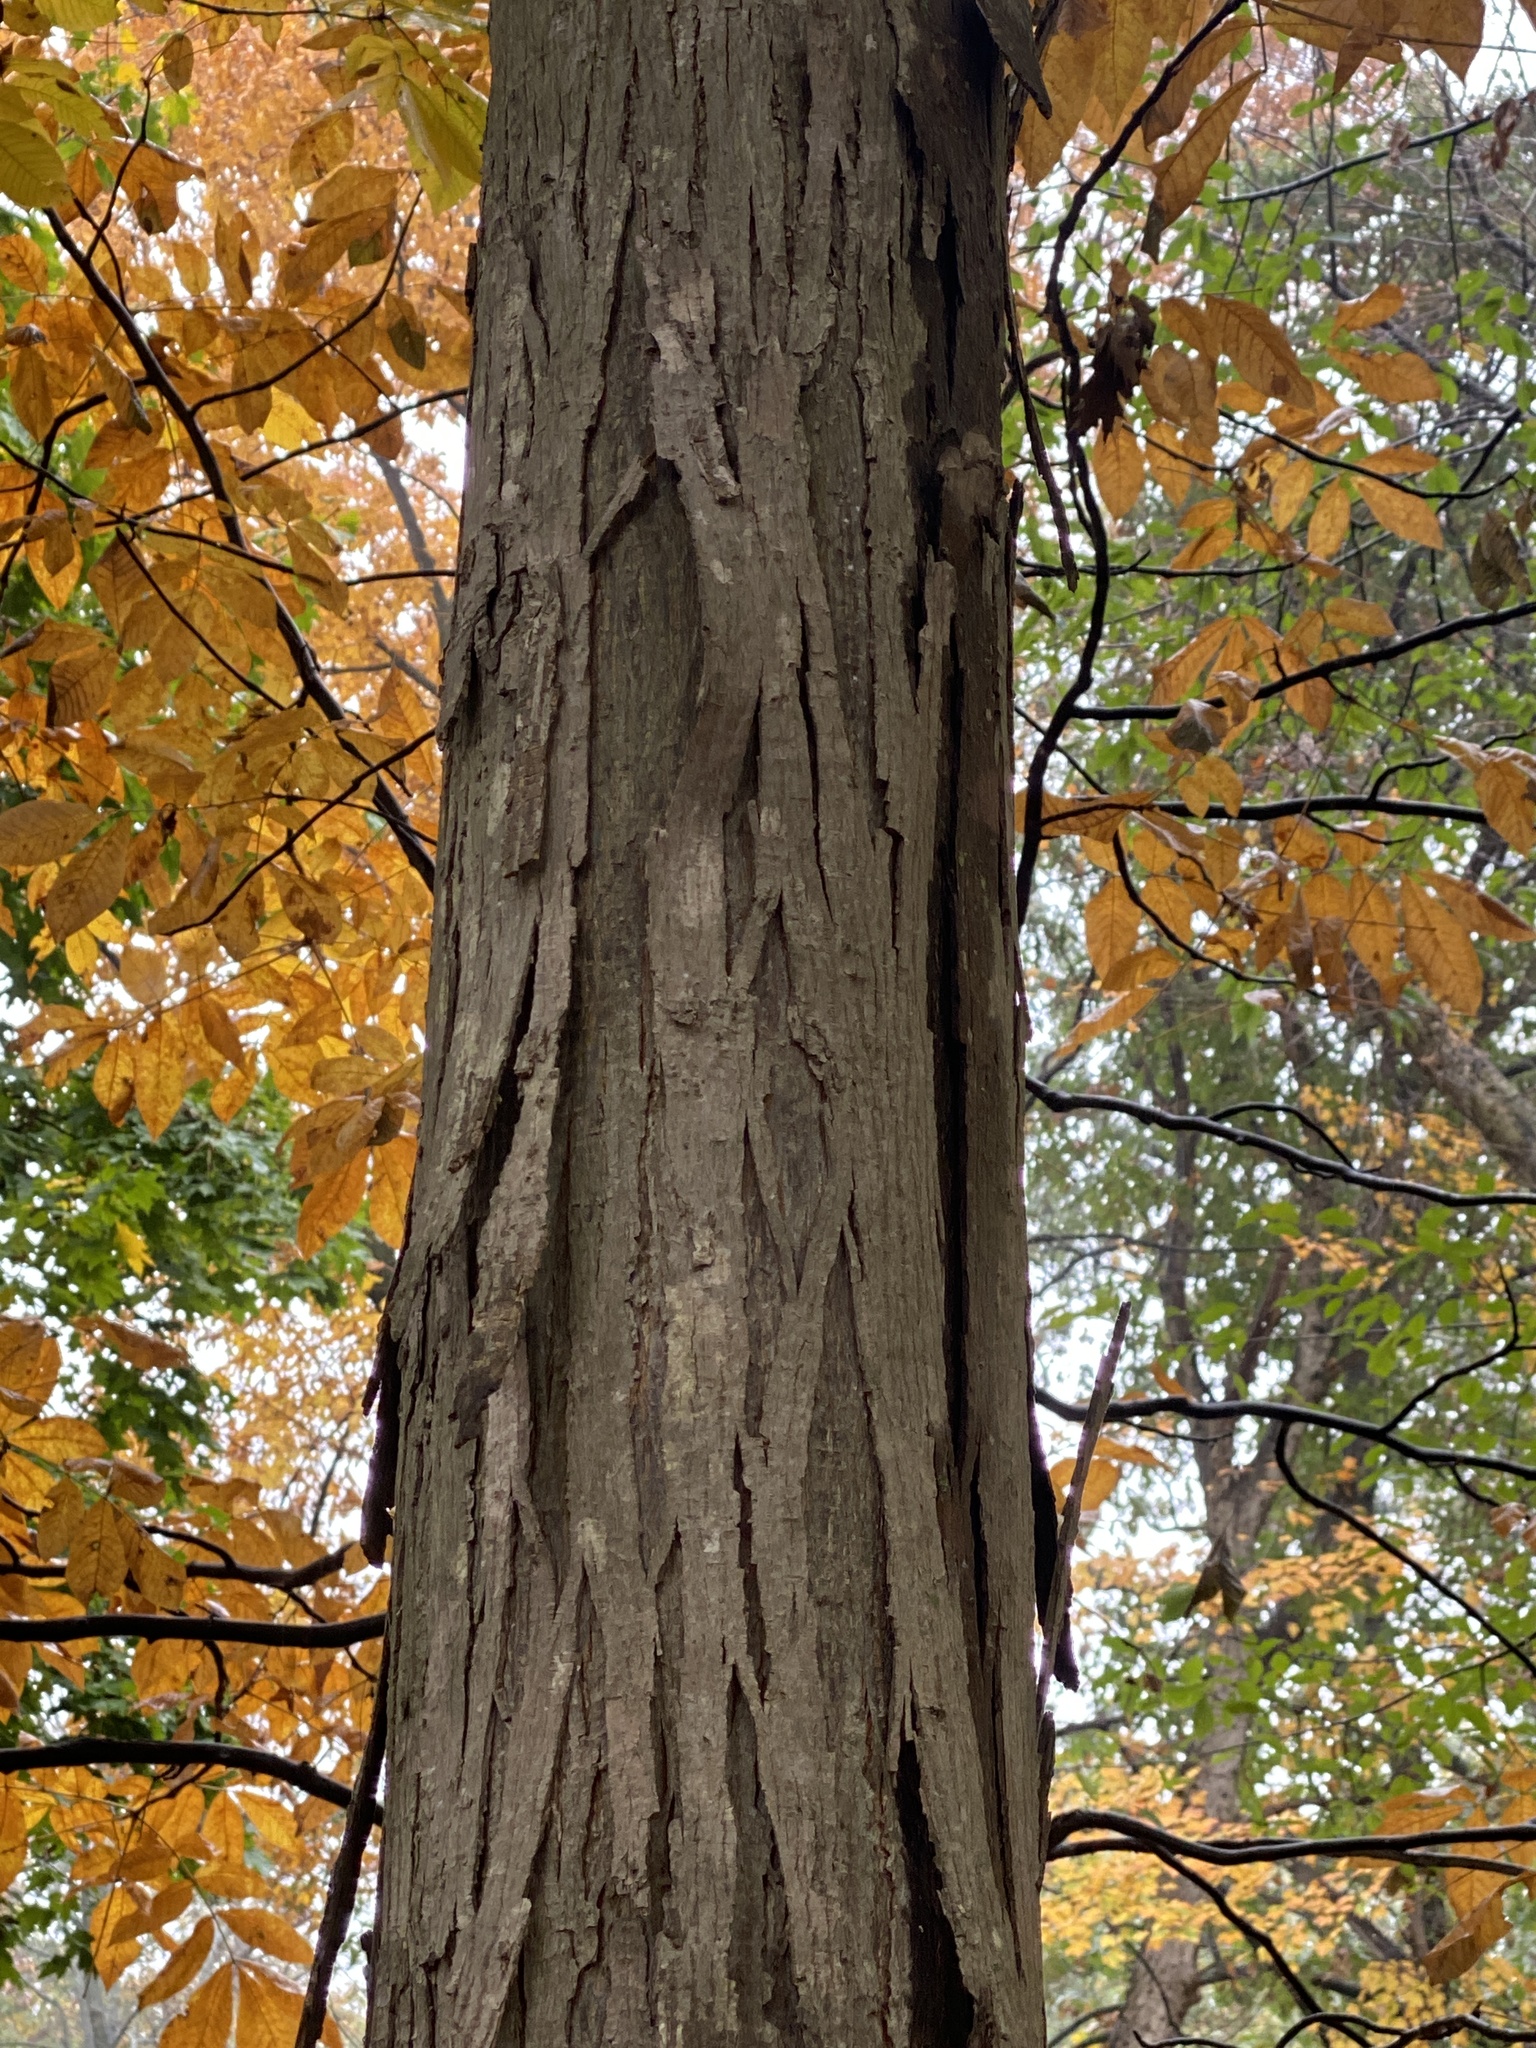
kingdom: Plantae
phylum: Tracheophyta
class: Magnoliopsida
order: Fagales
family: Juglandaceae
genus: Carya
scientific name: Carya ovata
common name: Shagbark hickory
